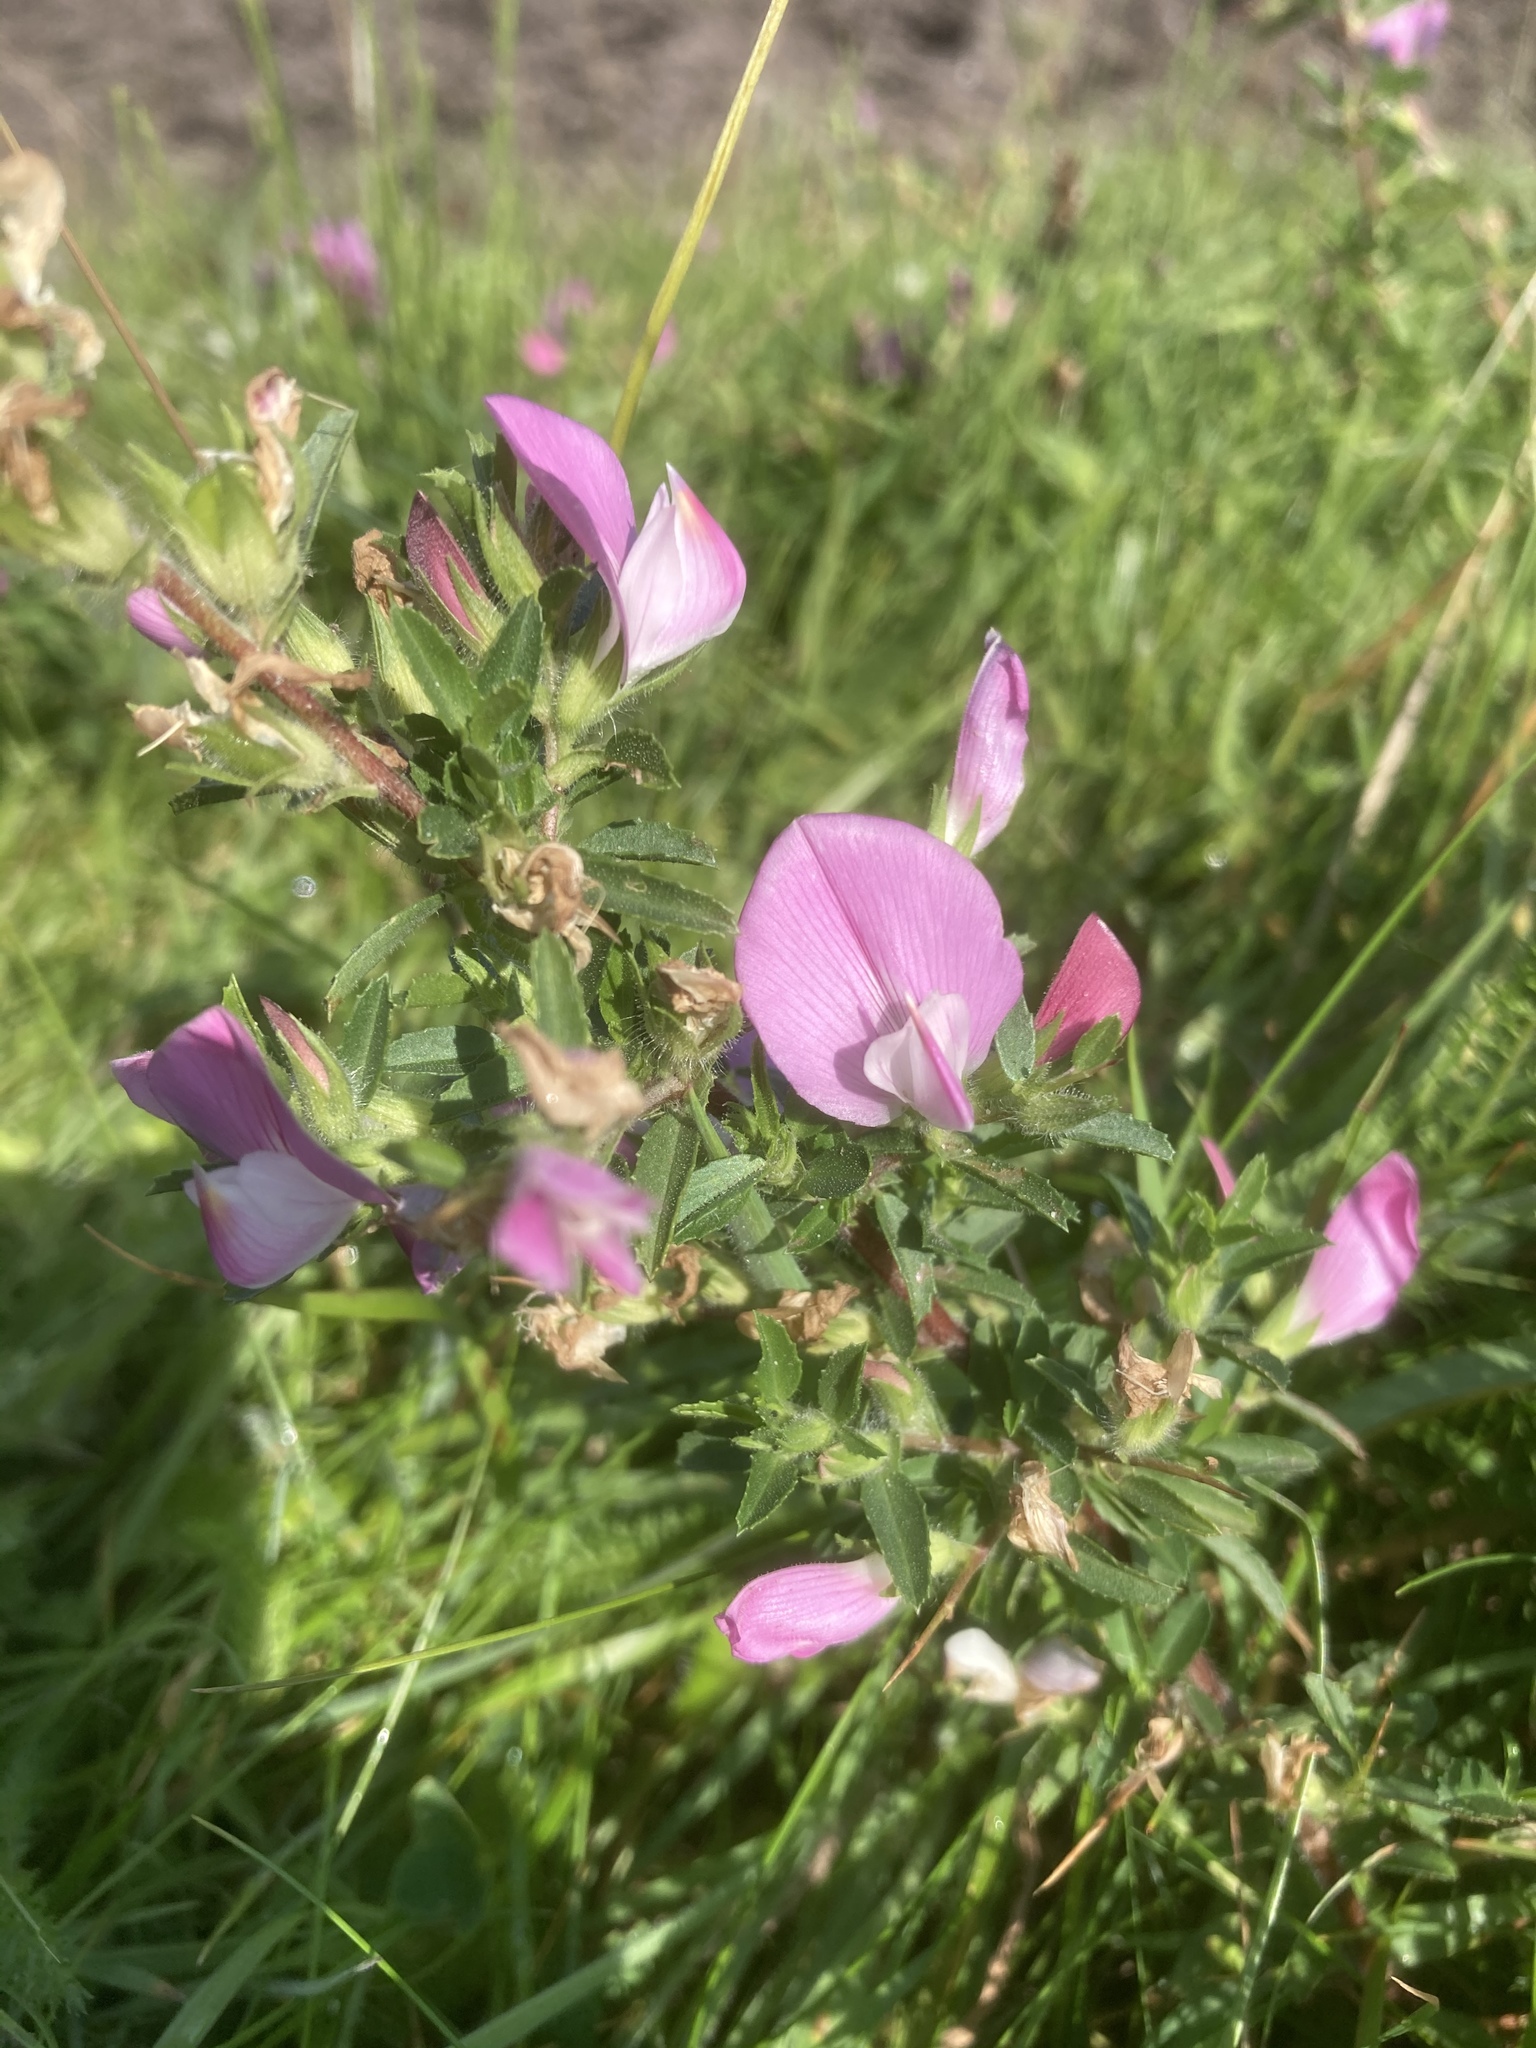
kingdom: Plantae
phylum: Tracheophyta
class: Magnoliopsida
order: Fabales
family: Fabaceae
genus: Ononis
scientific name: Ononis spinosa
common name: Spiny restharrow
